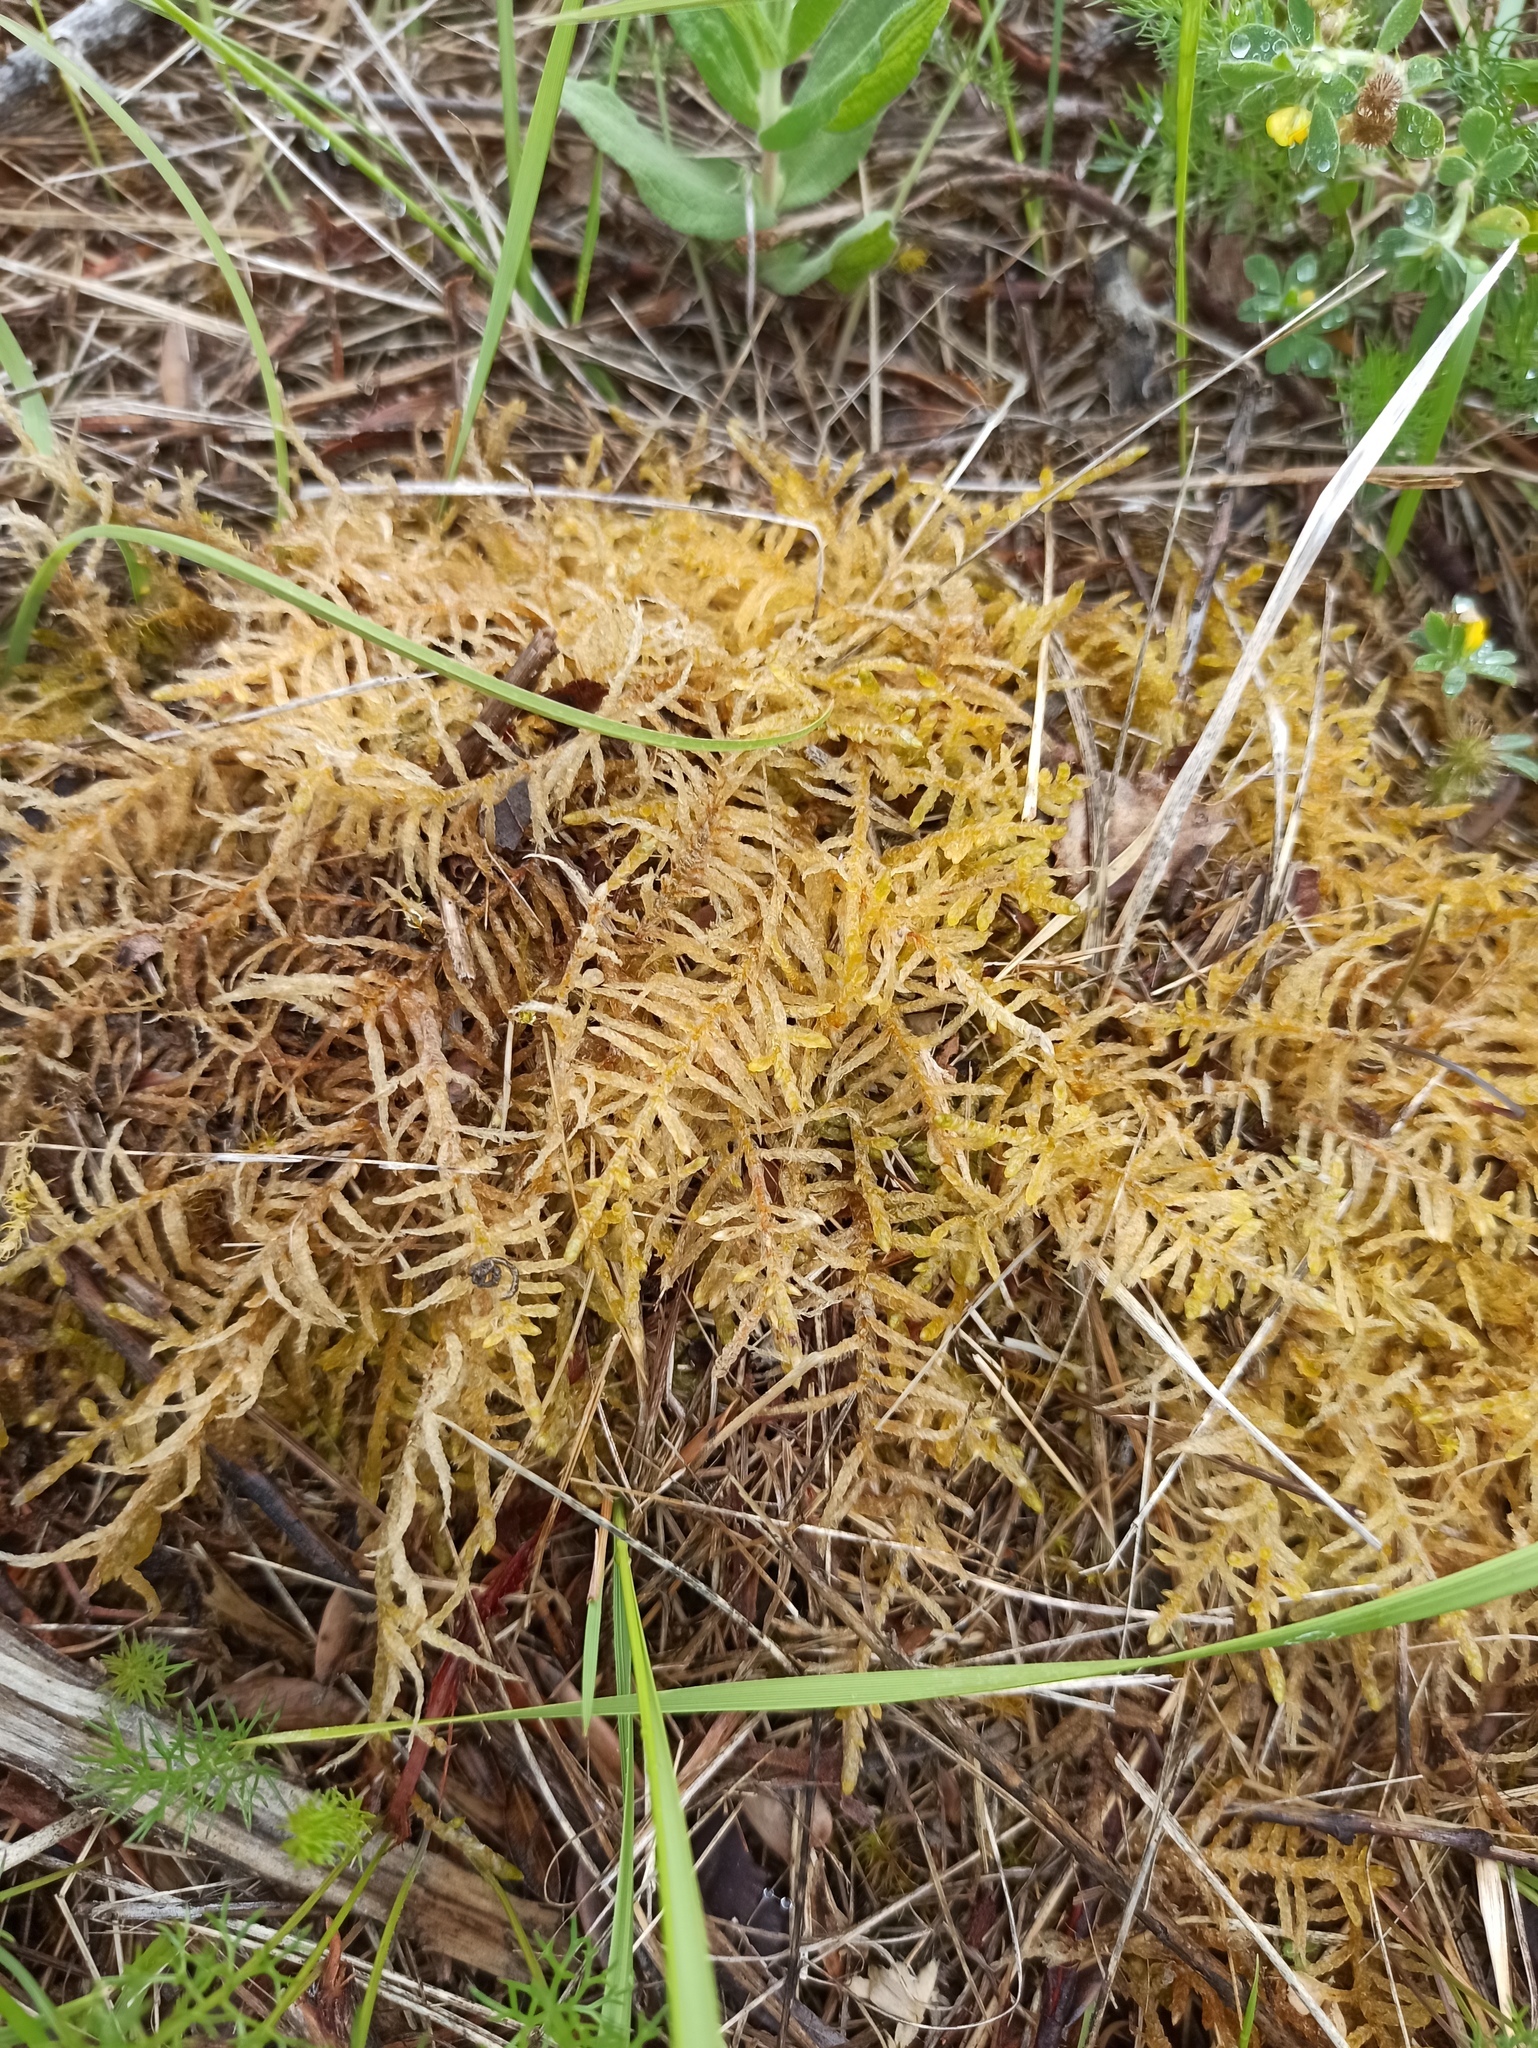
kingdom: Plantae
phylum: Bryophyta
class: Bryopsida
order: Hypnales
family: Brachytheciaceae
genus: Pseudoscleropodium
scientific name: Pseudoscleropodium purum
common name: Neat feather-moss
